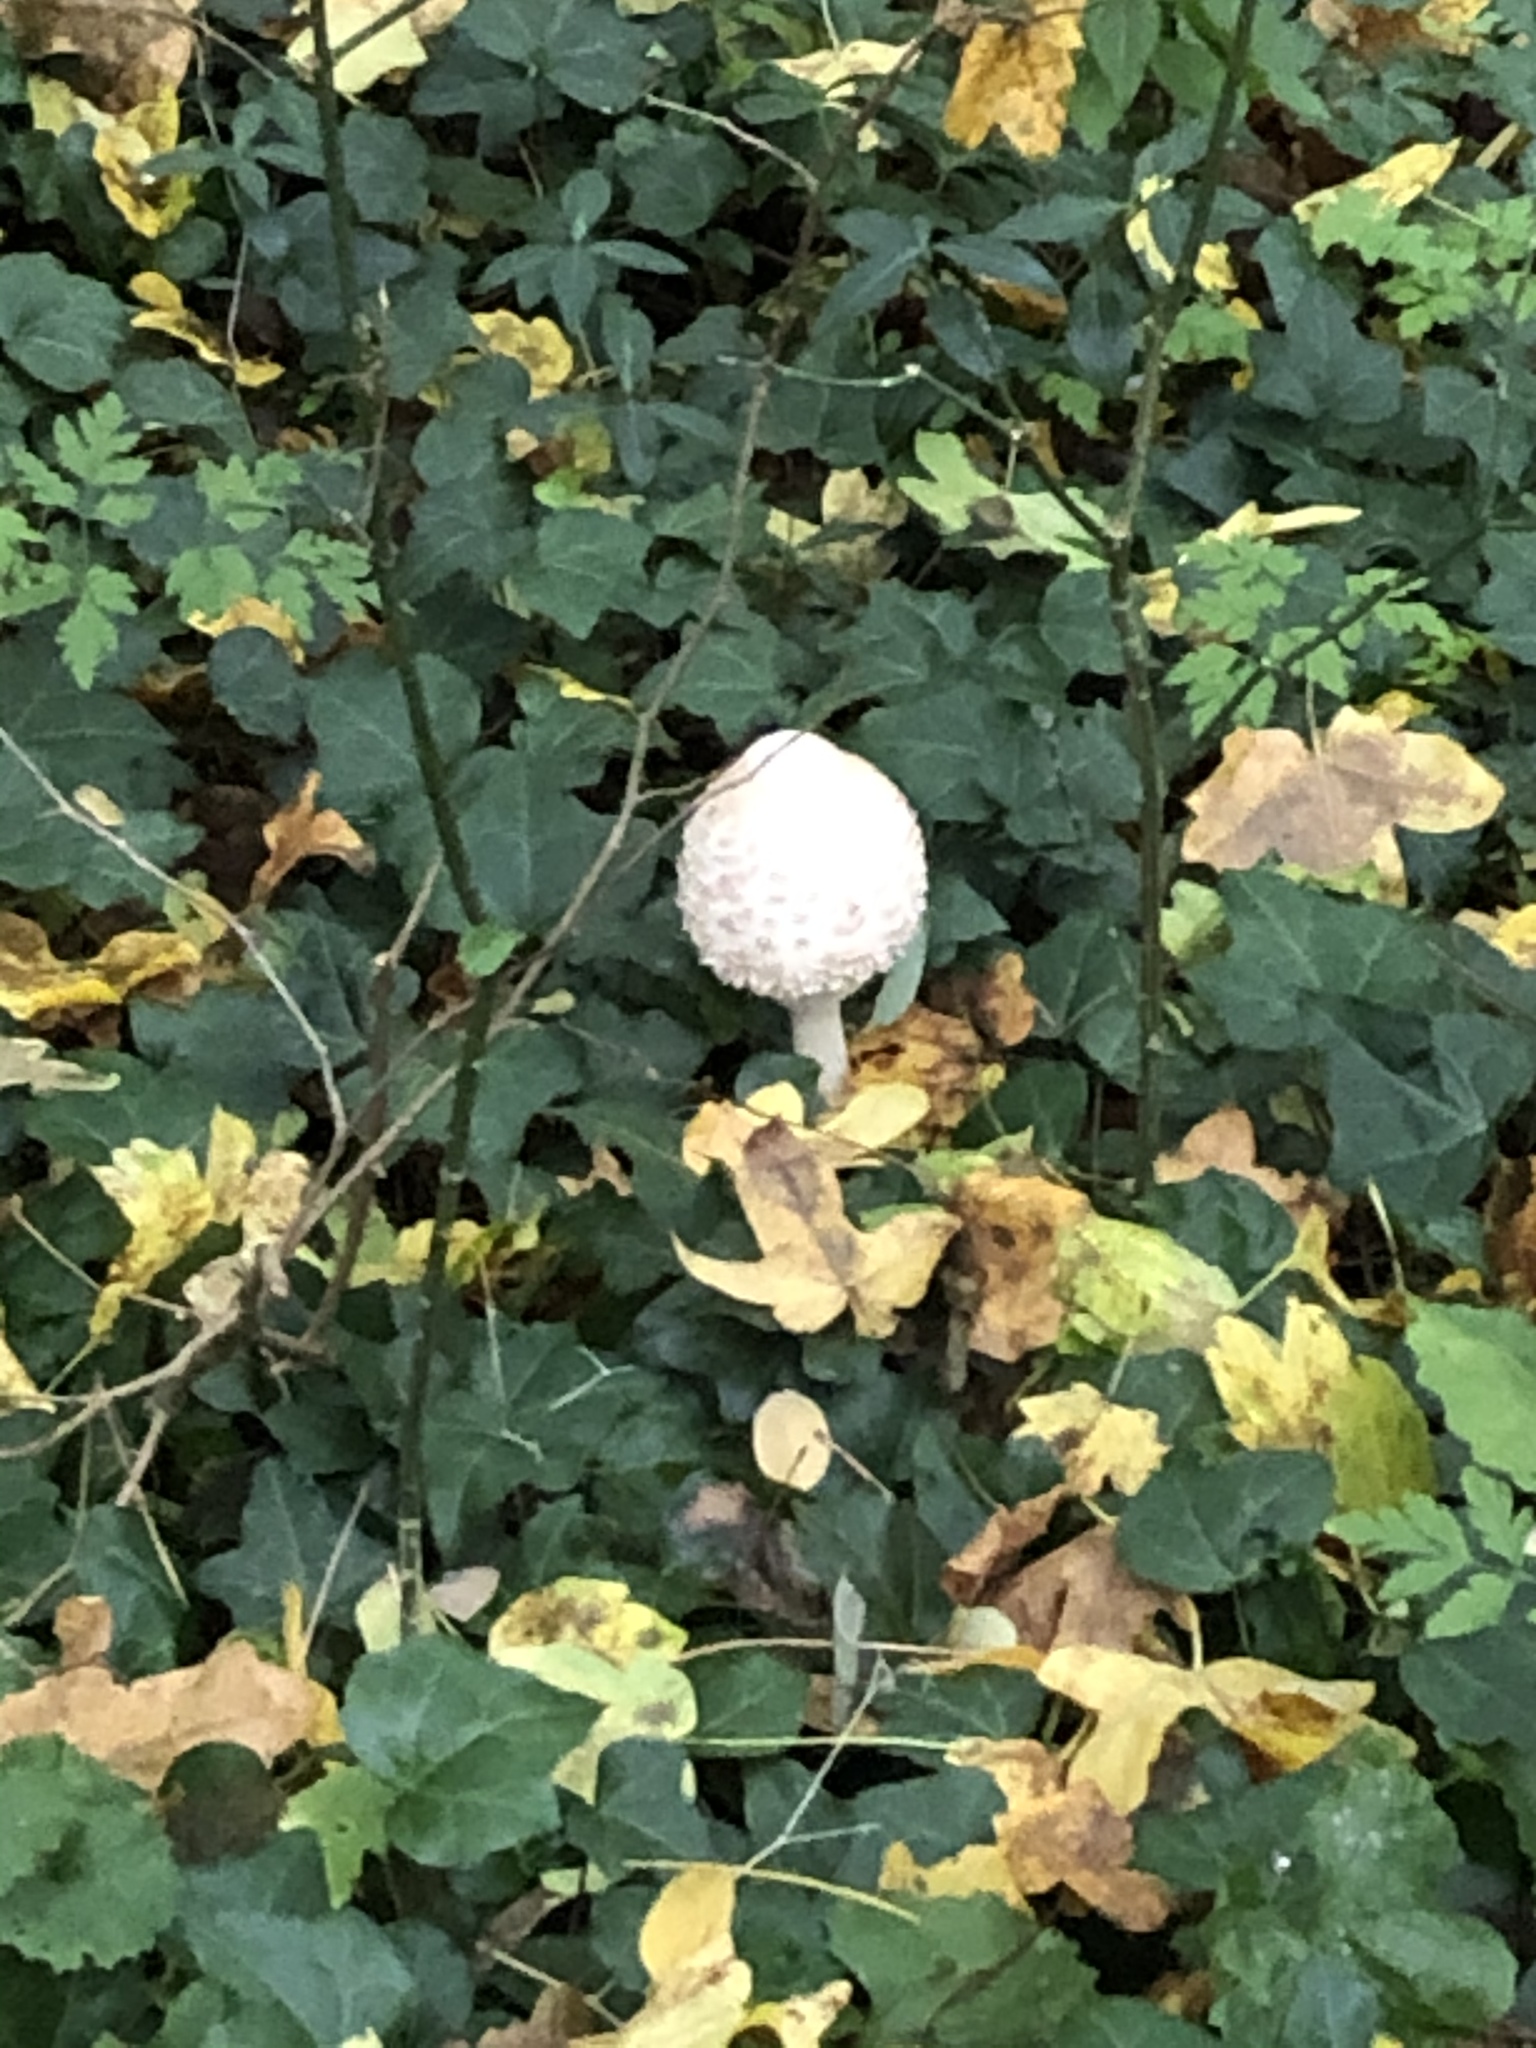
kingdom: Fungi
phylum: Basidiomycota
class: Agaricomycetes
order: Agaricales
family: Agaricaceae
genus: Leucoagaricus
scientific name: Leucoagaricus nympharum
